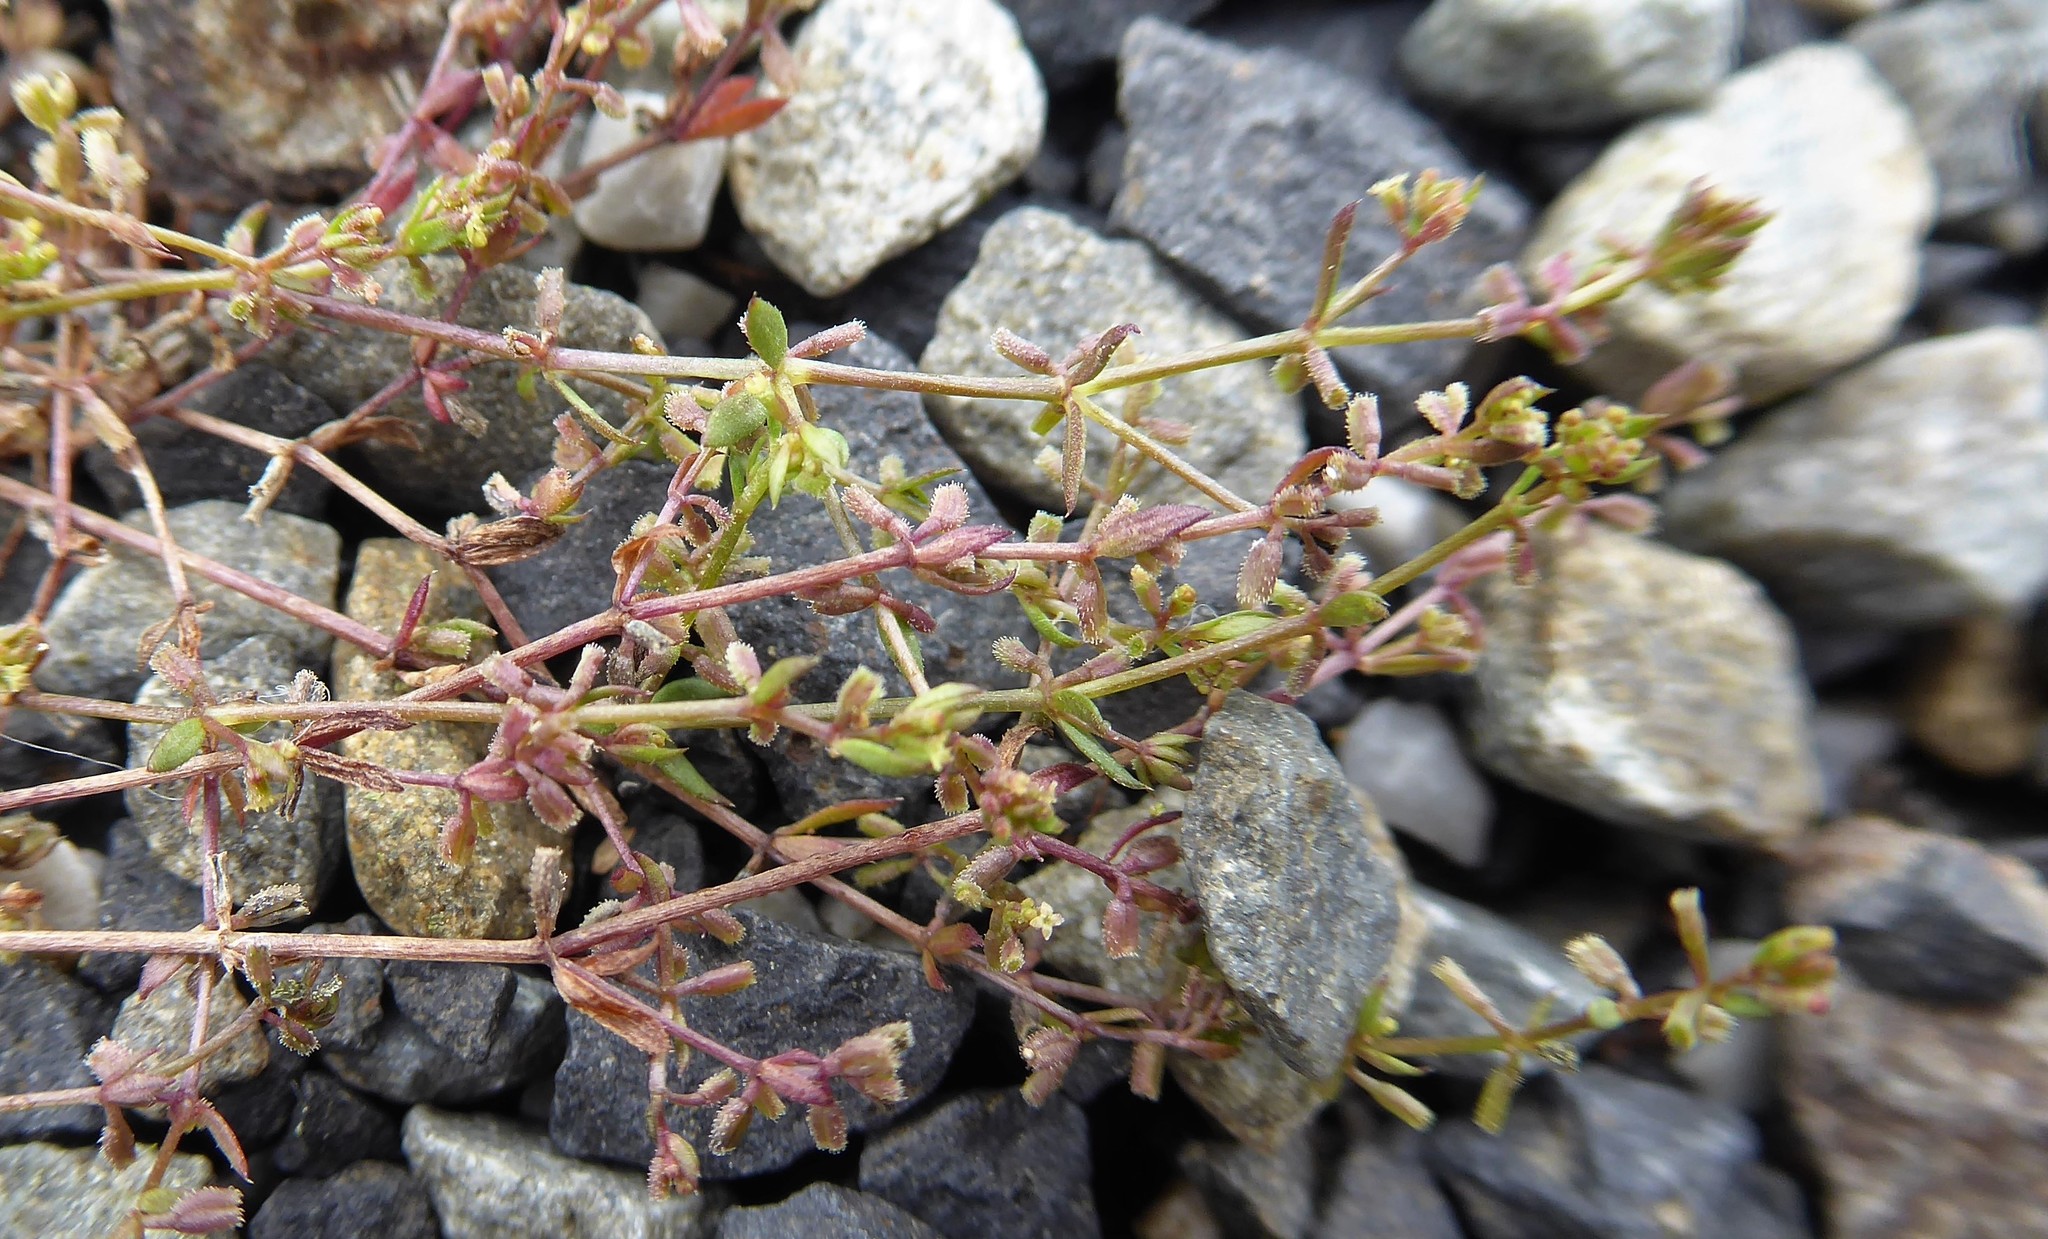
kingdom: Plantae
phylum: Tracheophyta
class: Magnoliopsida
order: Gentianales
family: Rubiaceae
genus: Galium
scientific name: Galium murale
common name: Yellow wall bedstraw
